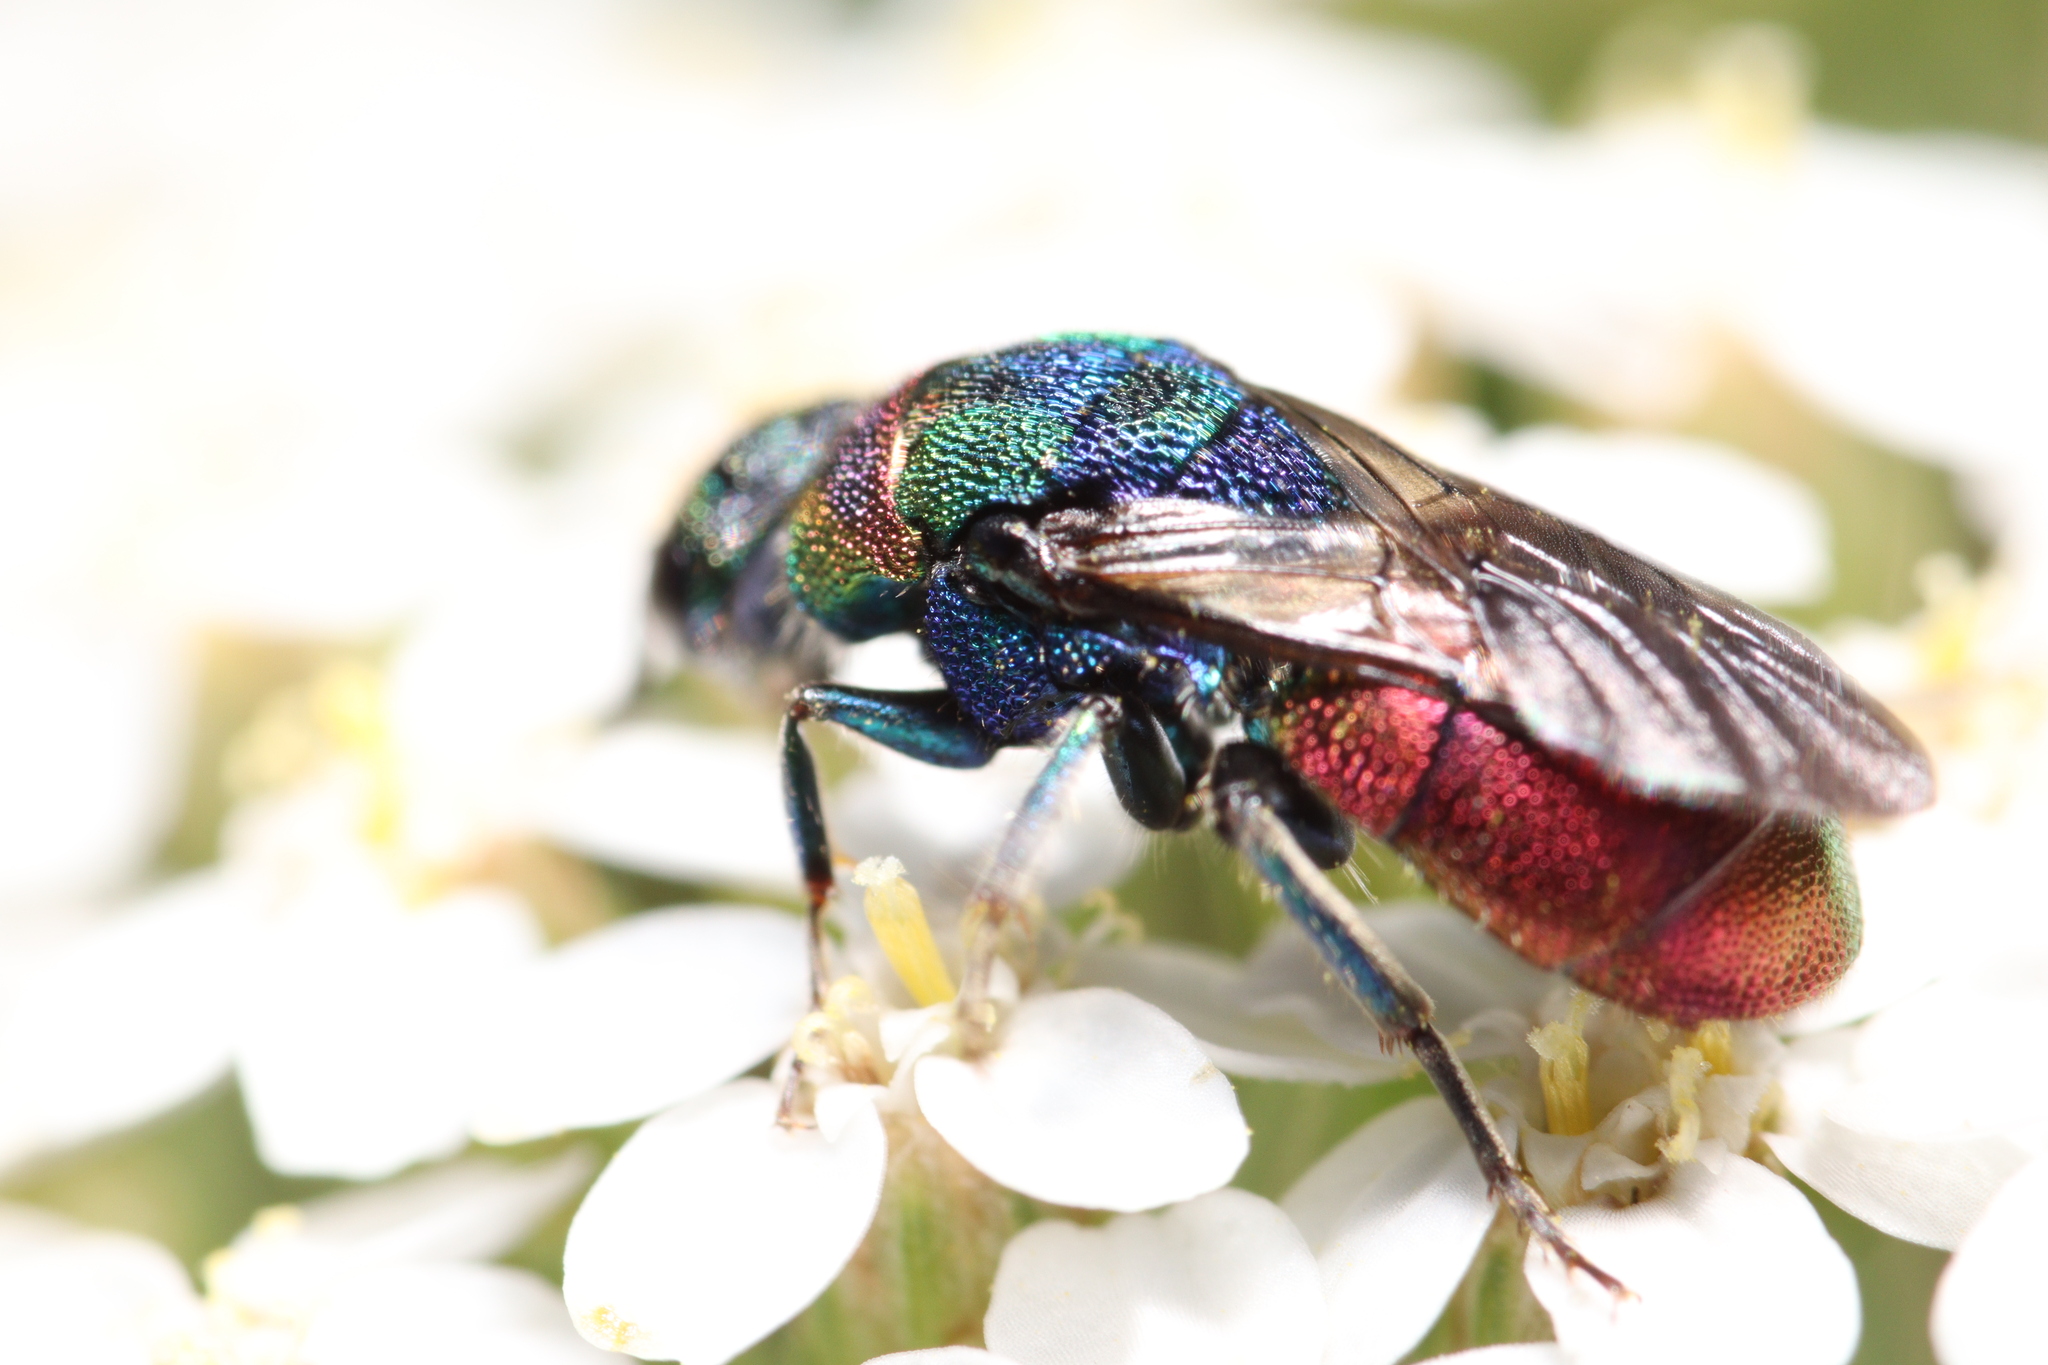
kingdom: Animalia
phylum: Arthropoda
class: Insecta
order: Hymenoptera
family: Chrysididae
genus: Hedychrum
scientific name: Hedychrum rutilans
